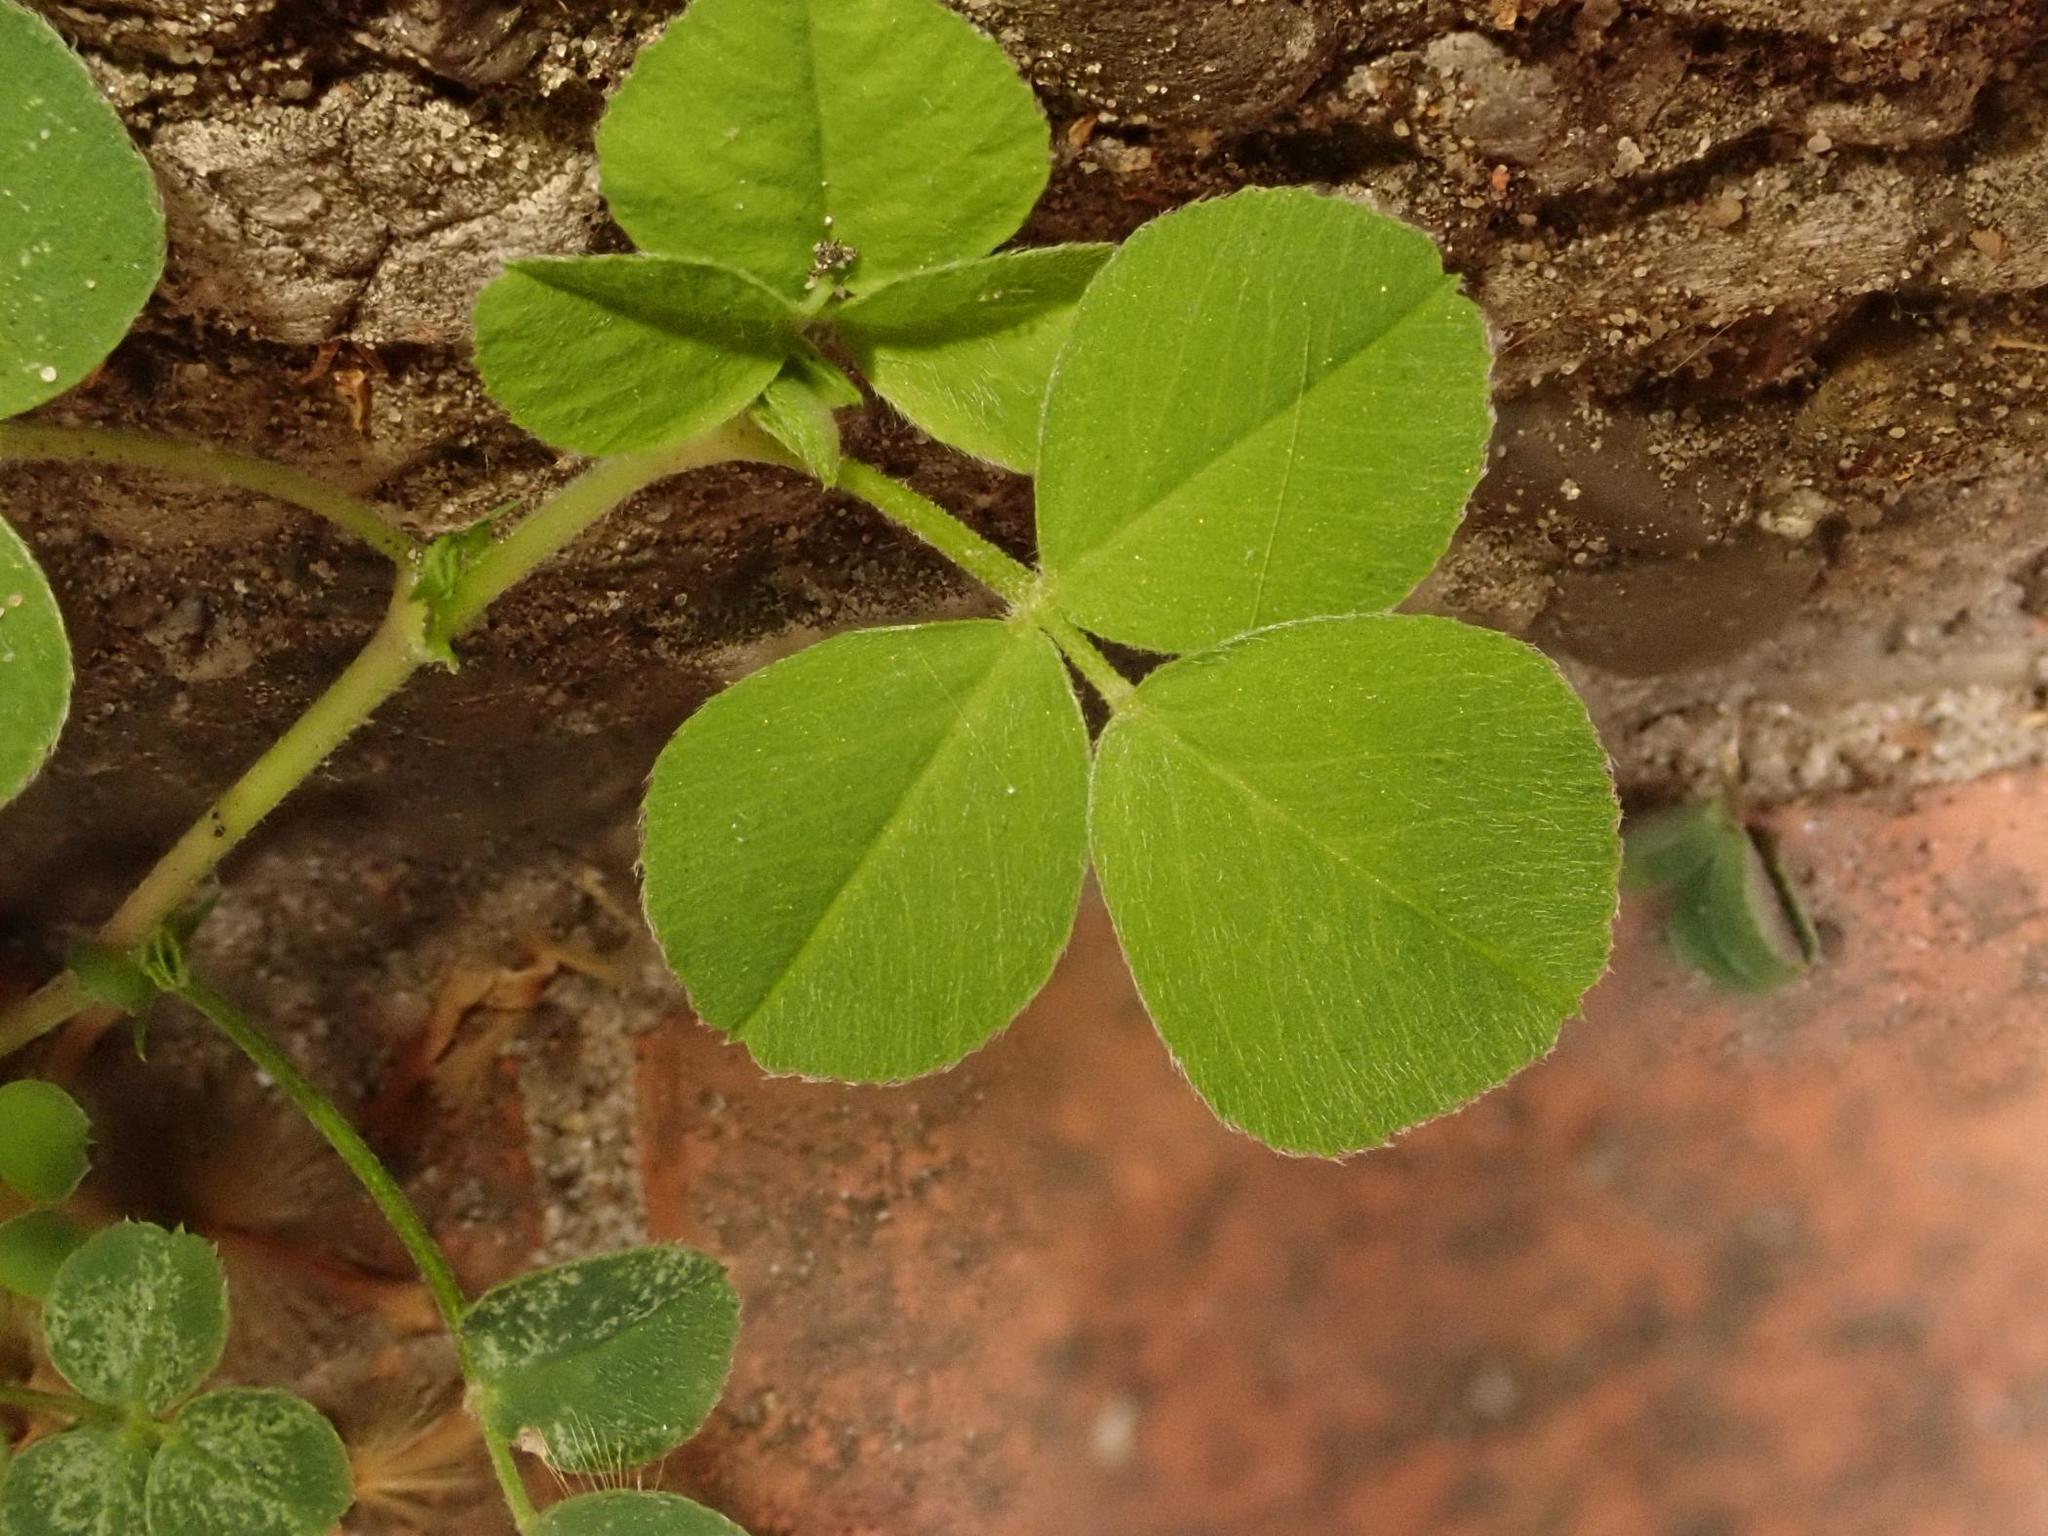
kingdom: Plantae
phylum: Tracheophyta
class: Magnoliopsida
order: Fabales
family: Fabaceae
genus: Medicago
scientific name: Medicago lupulina
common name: Black medick
